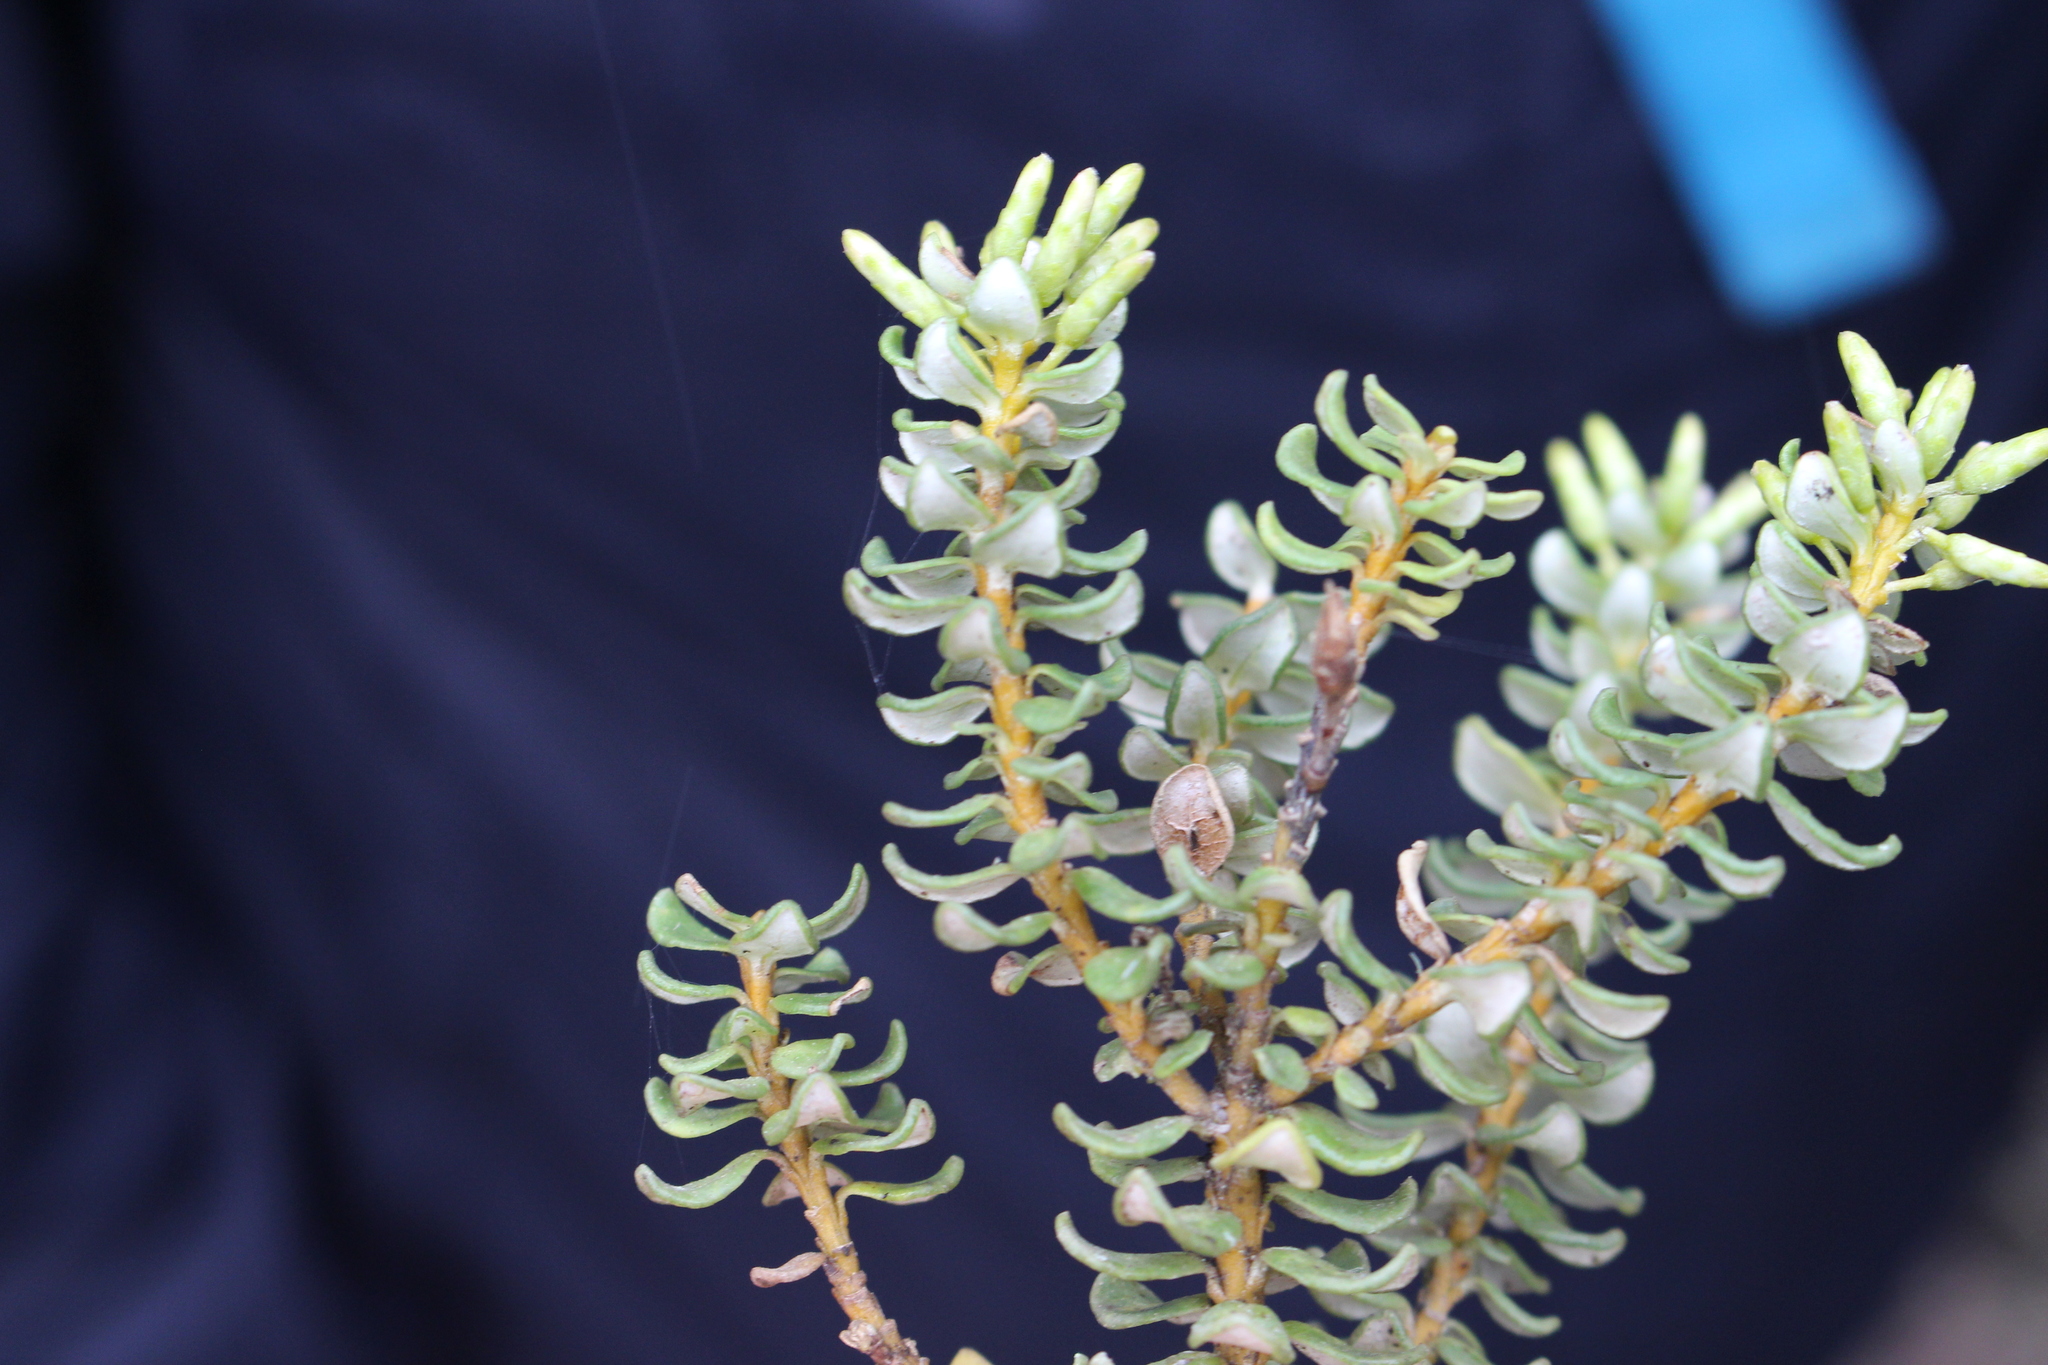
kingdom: Plantae
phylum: Tracheophyta
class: Magnoliopsida
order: Asterales
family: Asteraceae
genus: Olearia
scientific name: Olearia nummularifolia
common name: Sticky daisybush
